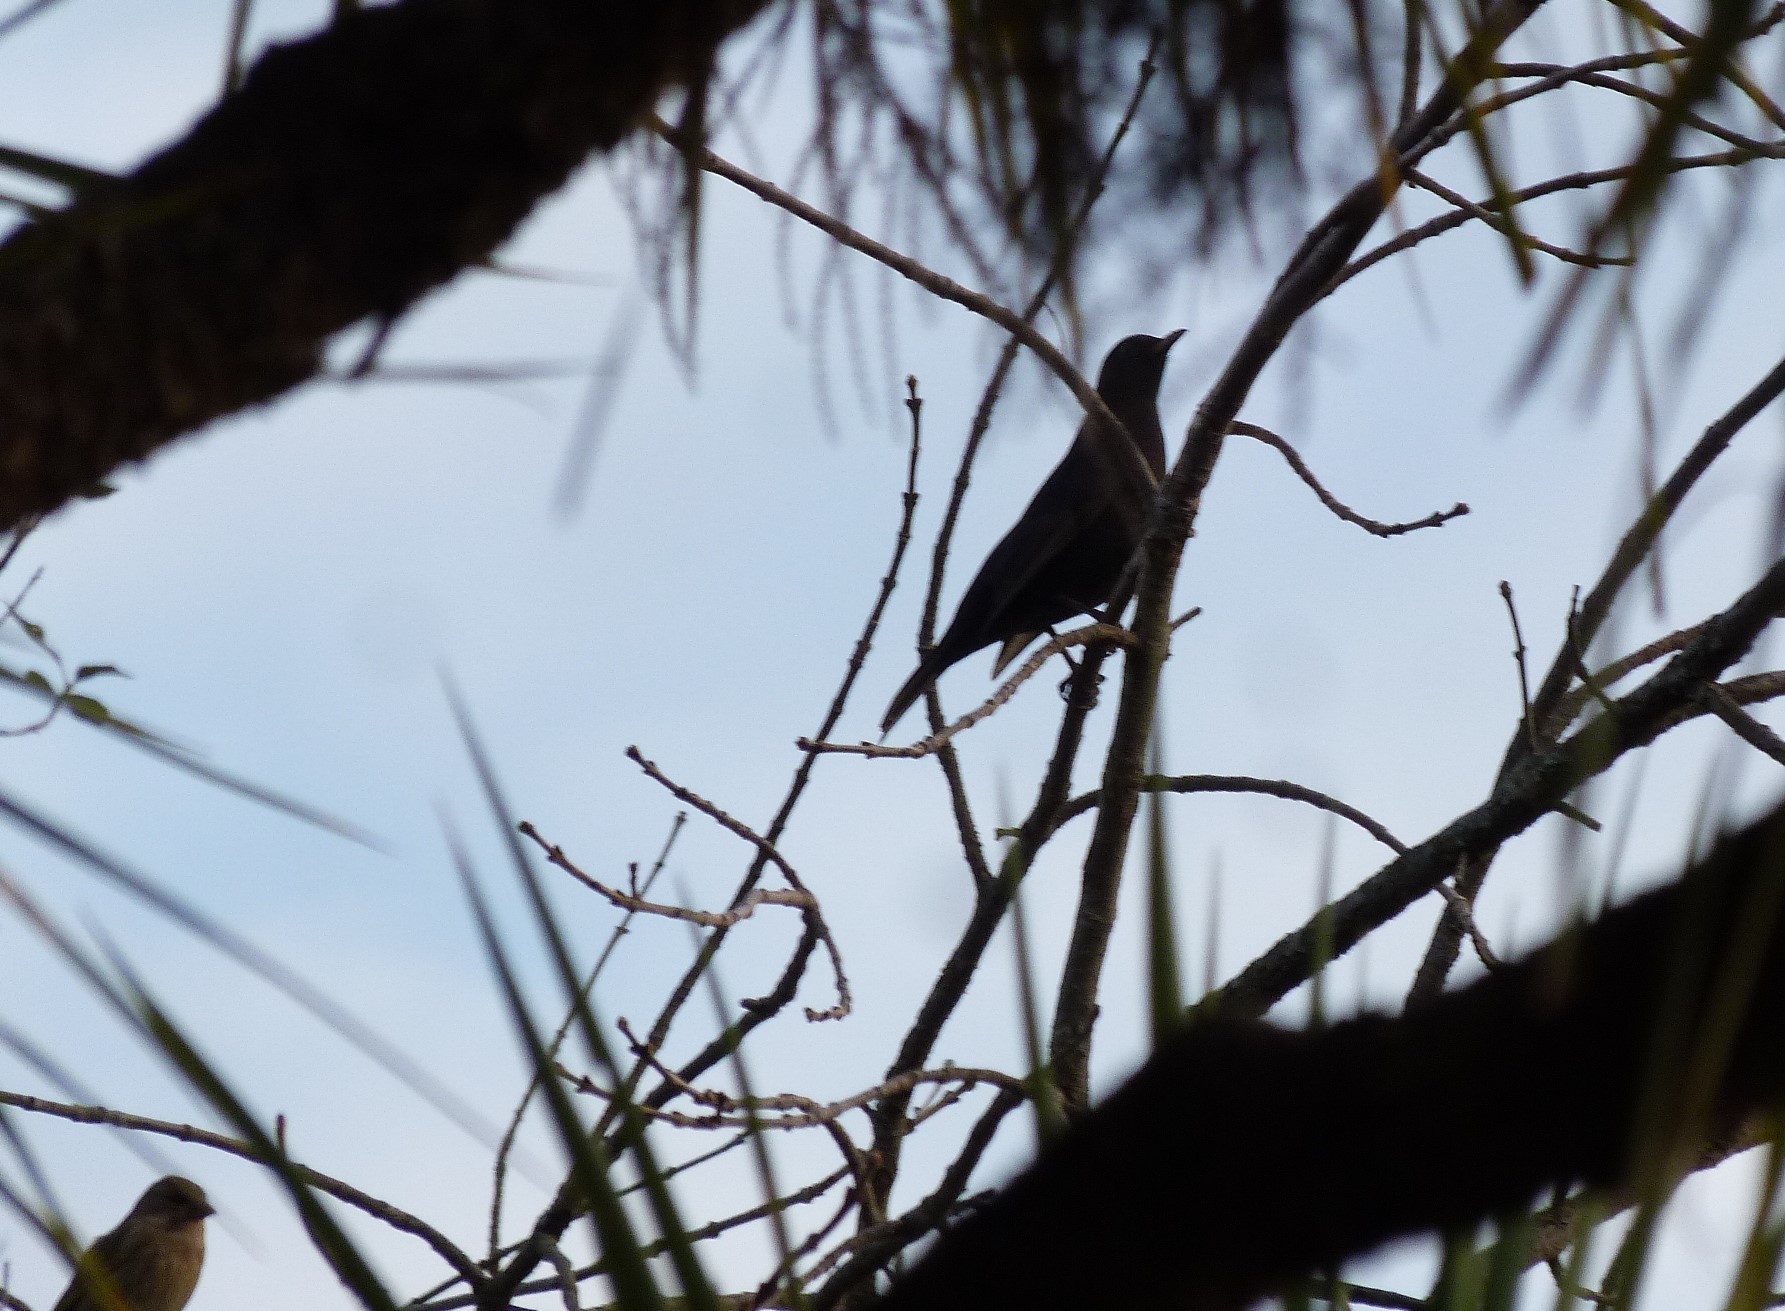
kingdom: Animalia
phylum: Chordata
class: Aves
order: Passeriformes
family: Turdidae
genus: Turdus
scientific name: Turdus merula
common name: Common blackbird
